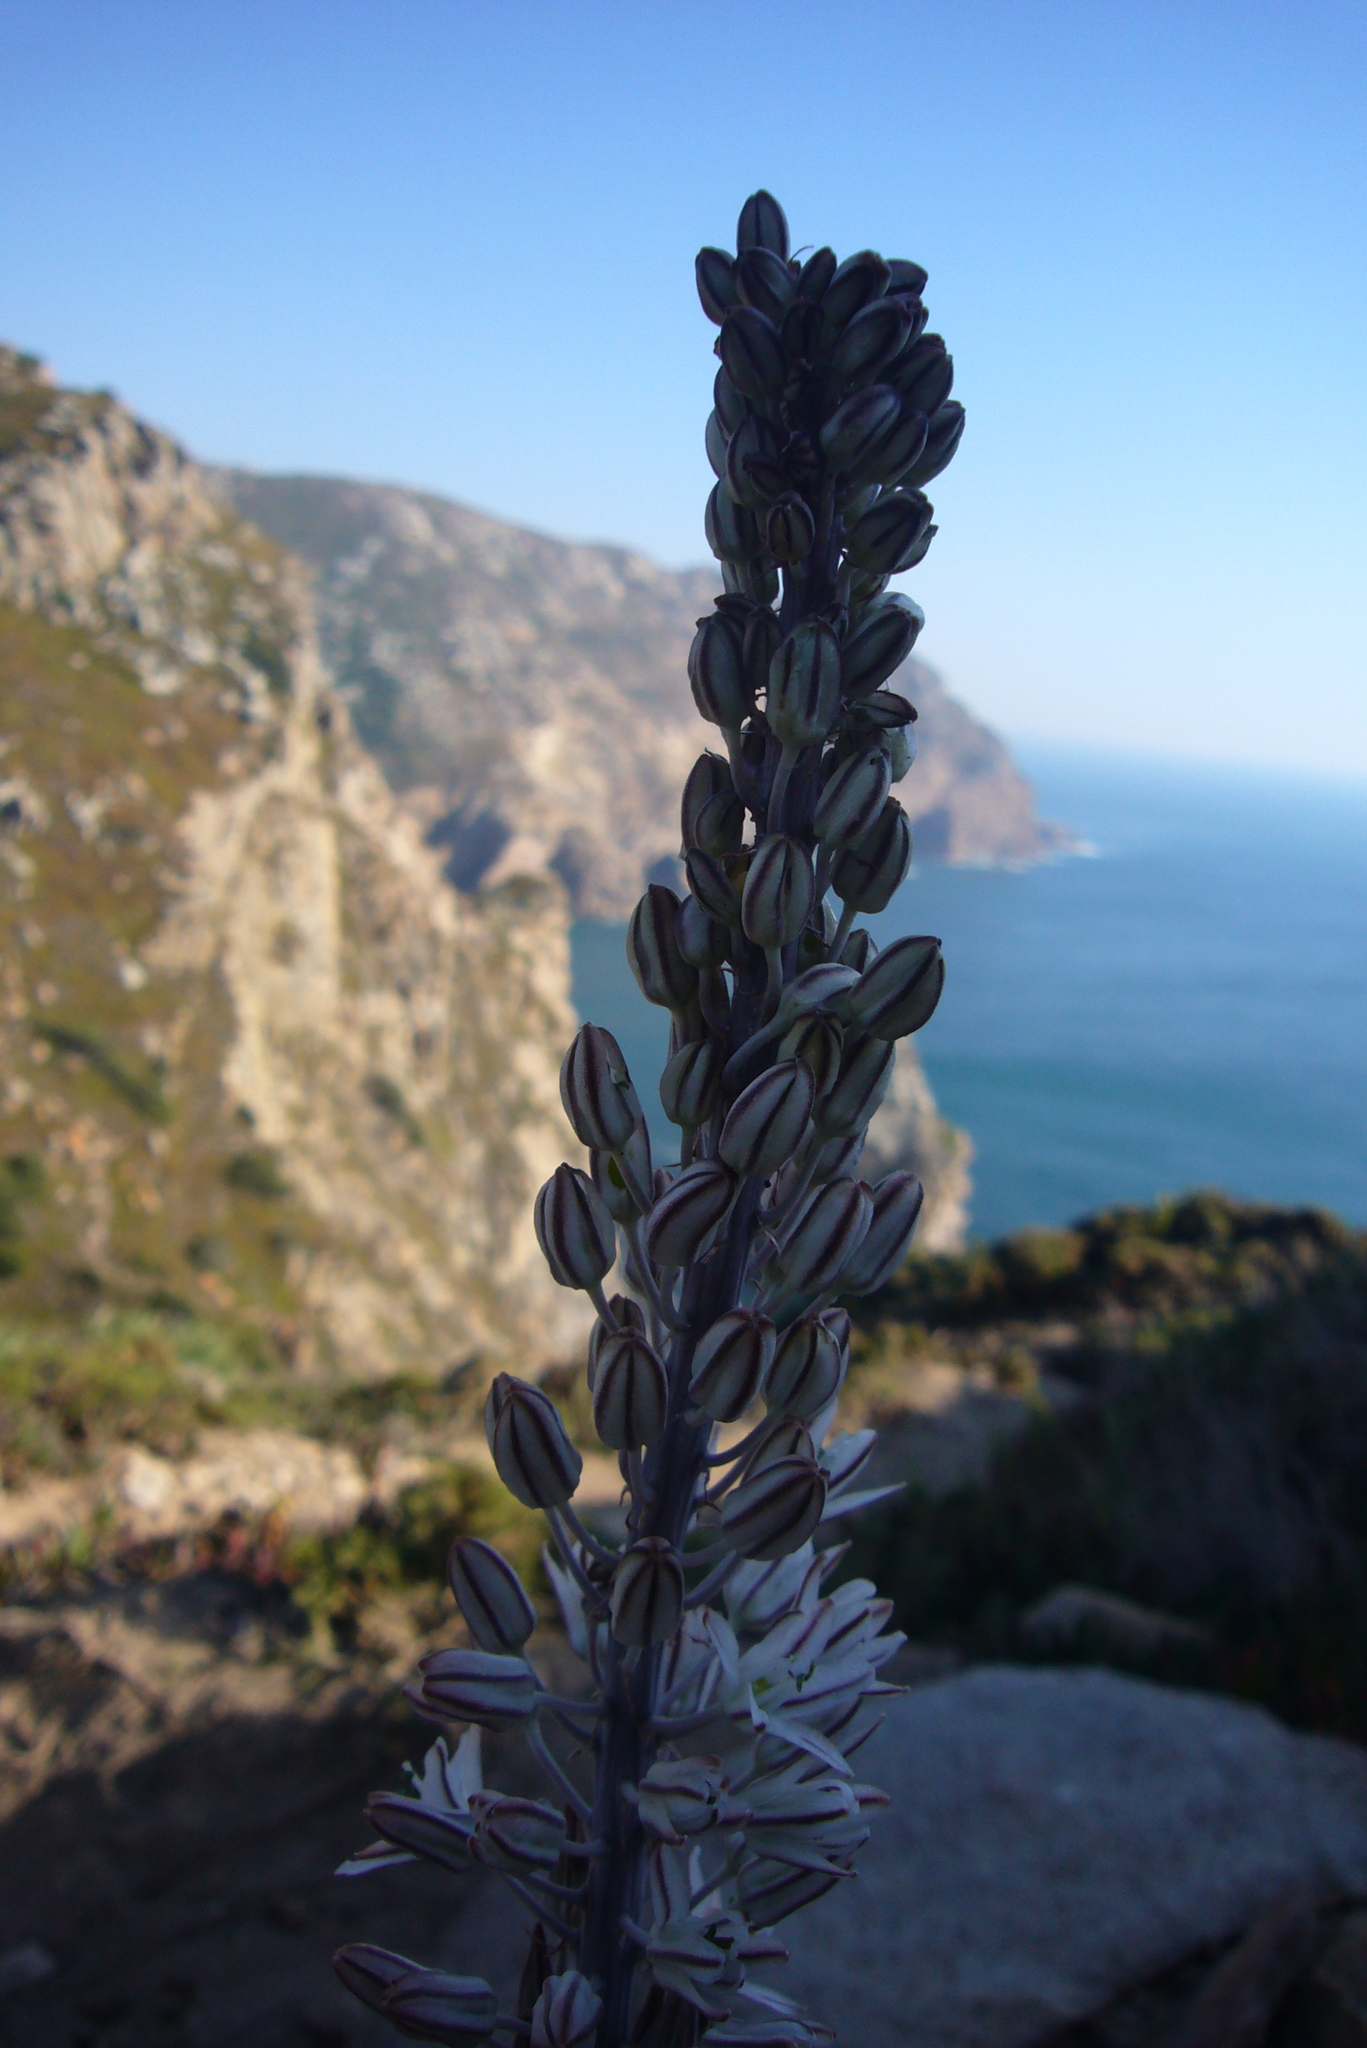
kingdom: Plantae
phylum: Tracheophyta
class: Liliopsida
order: Asparagales
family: Asparagaceae
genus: Drimia
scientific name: Drimia maritima
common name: Maritime squill
